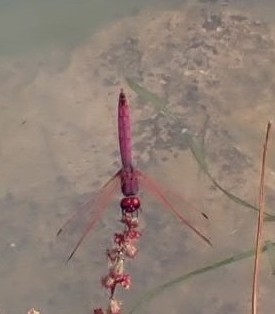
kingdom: Animalia
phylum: Arthropoda
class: Insecta
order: Odonata
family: Libellulidae
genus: Trithemis
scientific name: Trithemis annulata
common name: Violet dropwing
